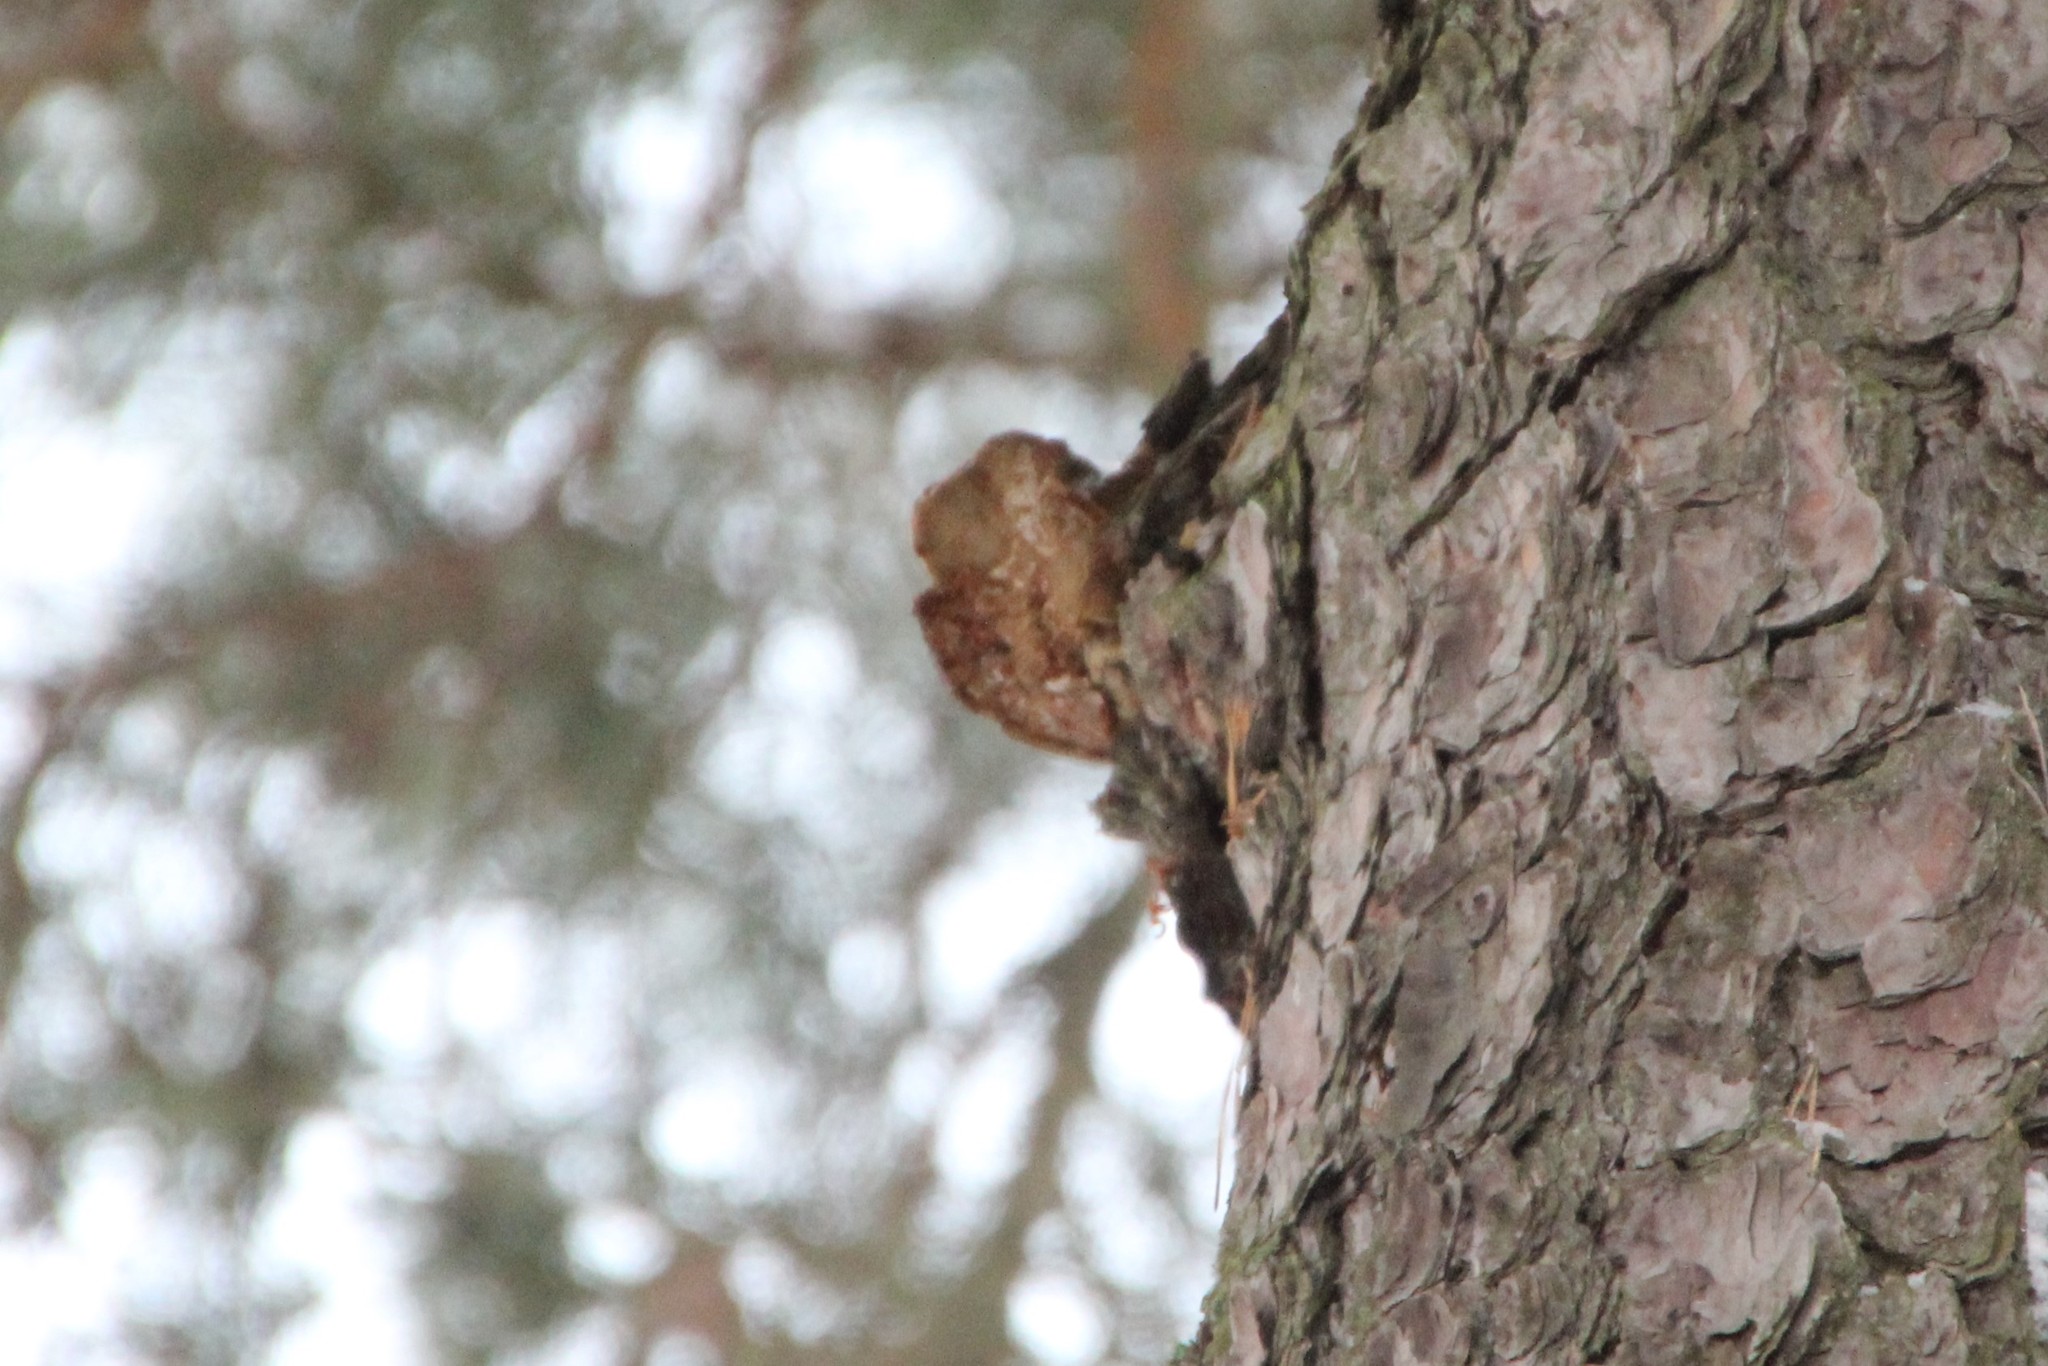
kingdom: Fungi
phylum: Basidiomycota
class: Agaricomycetes
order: Hymenochaetales
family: Hymenochaetaceae
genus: Porodaedalea
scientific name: Porodaedalea pini
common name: Pine bracket
